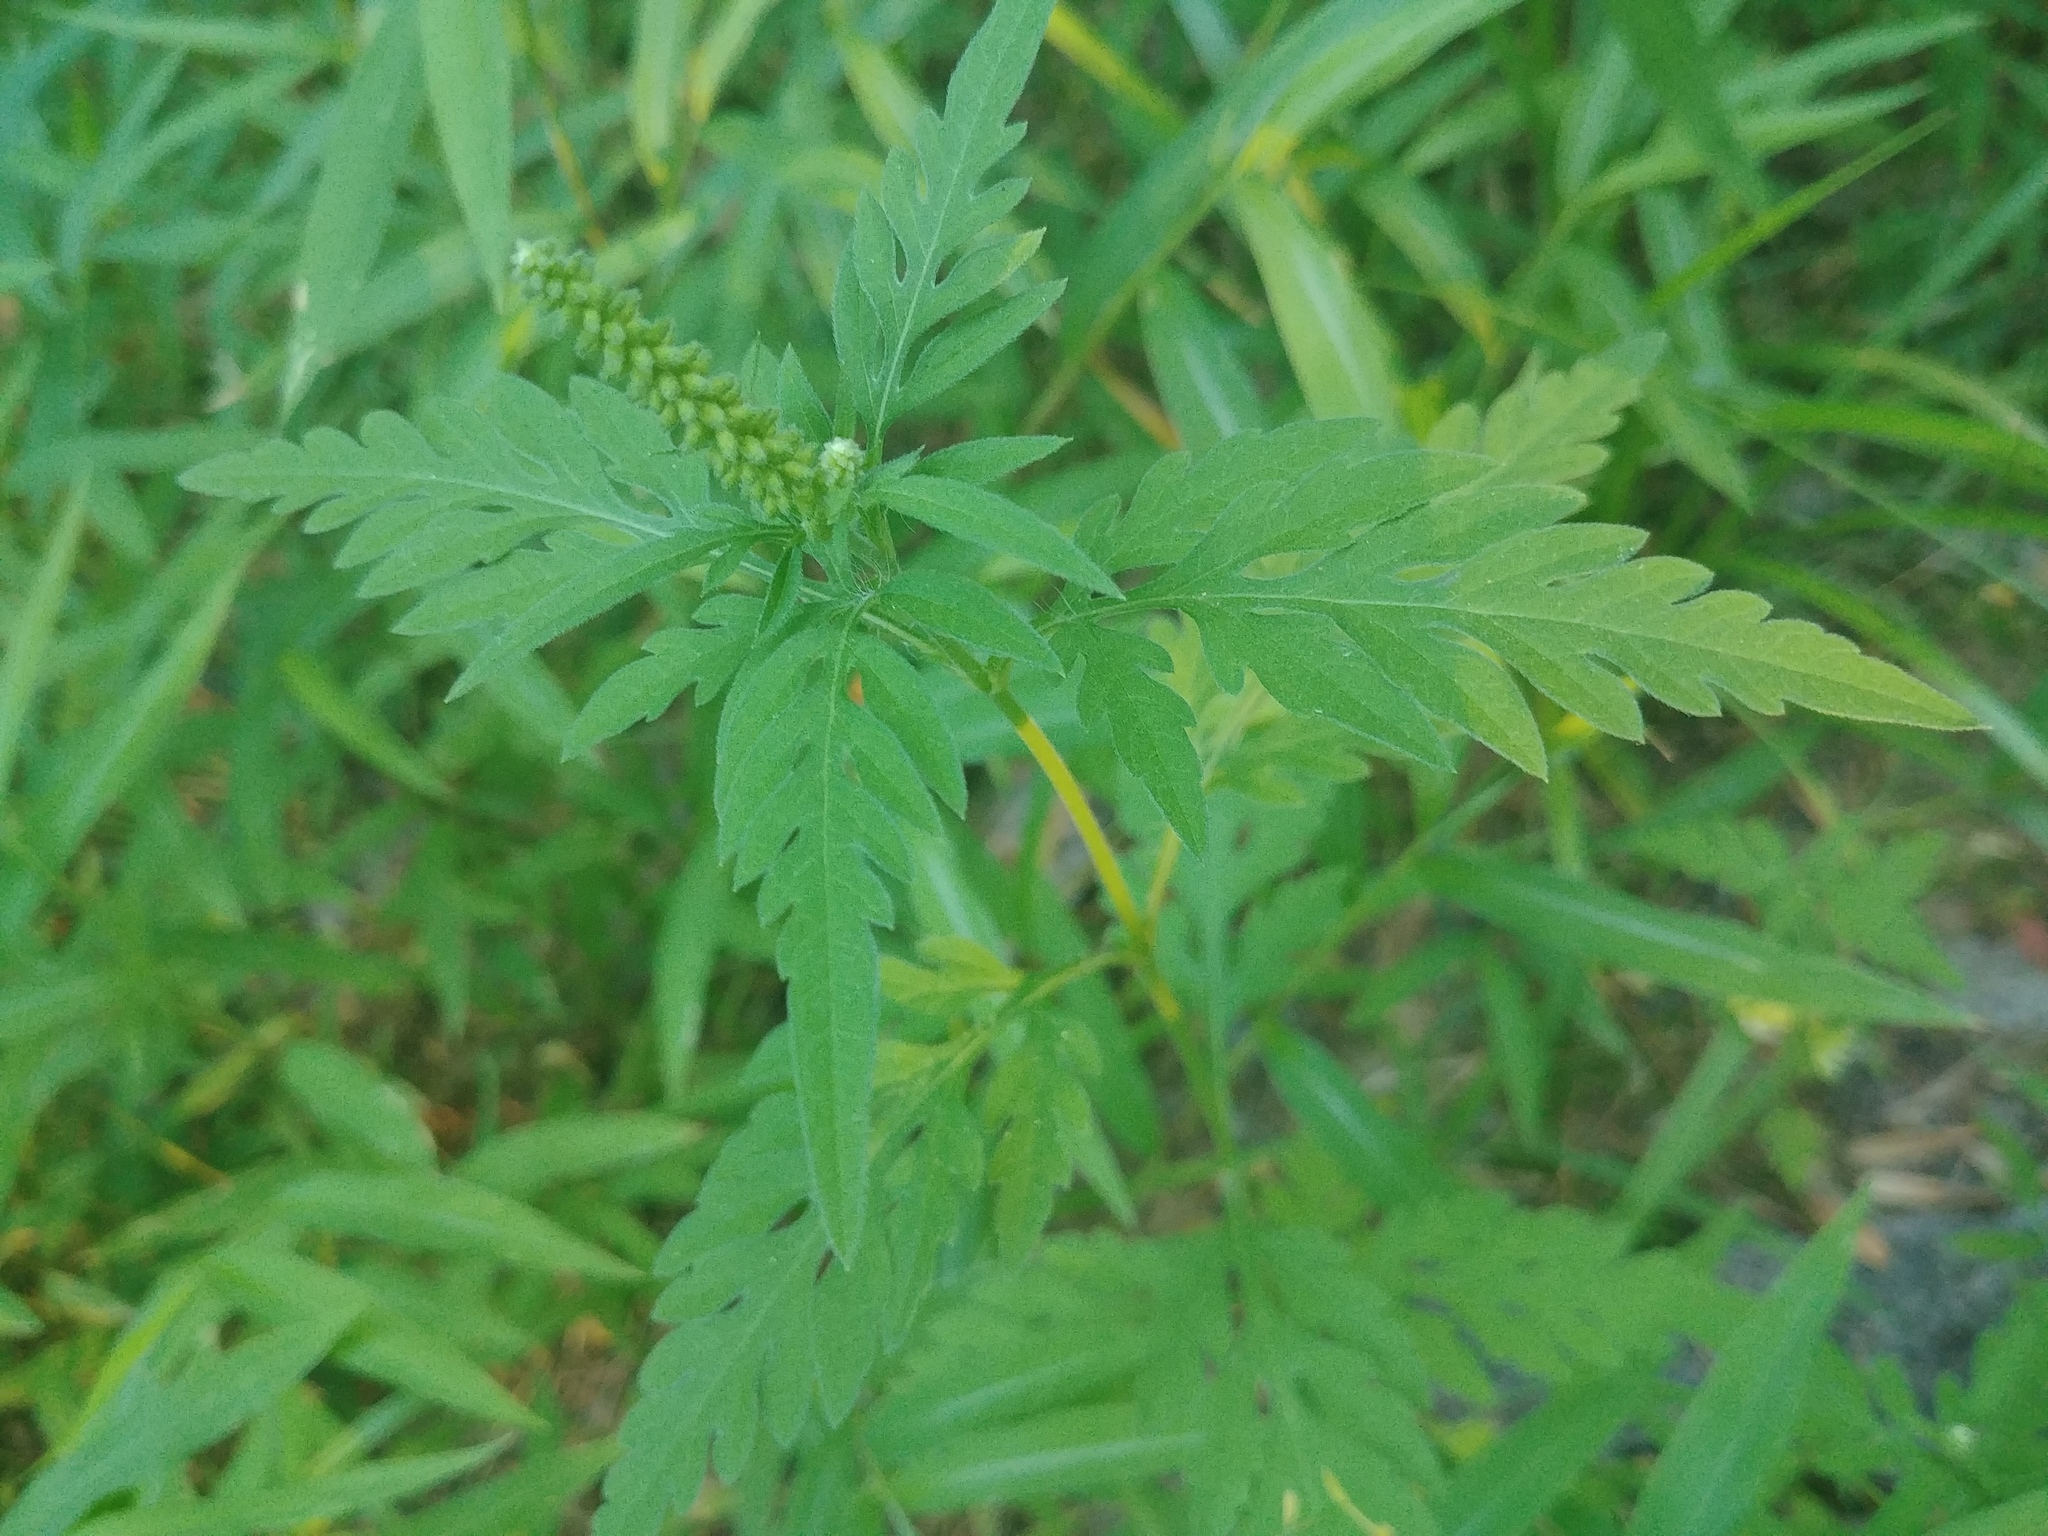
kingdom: Plantae
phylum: Tracheophyta
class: Magnoliopsida
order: Asterales
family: Asteraceae
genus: Ambrosia
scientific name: Ambrosia artemisiifolia
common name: Annual ragweed
